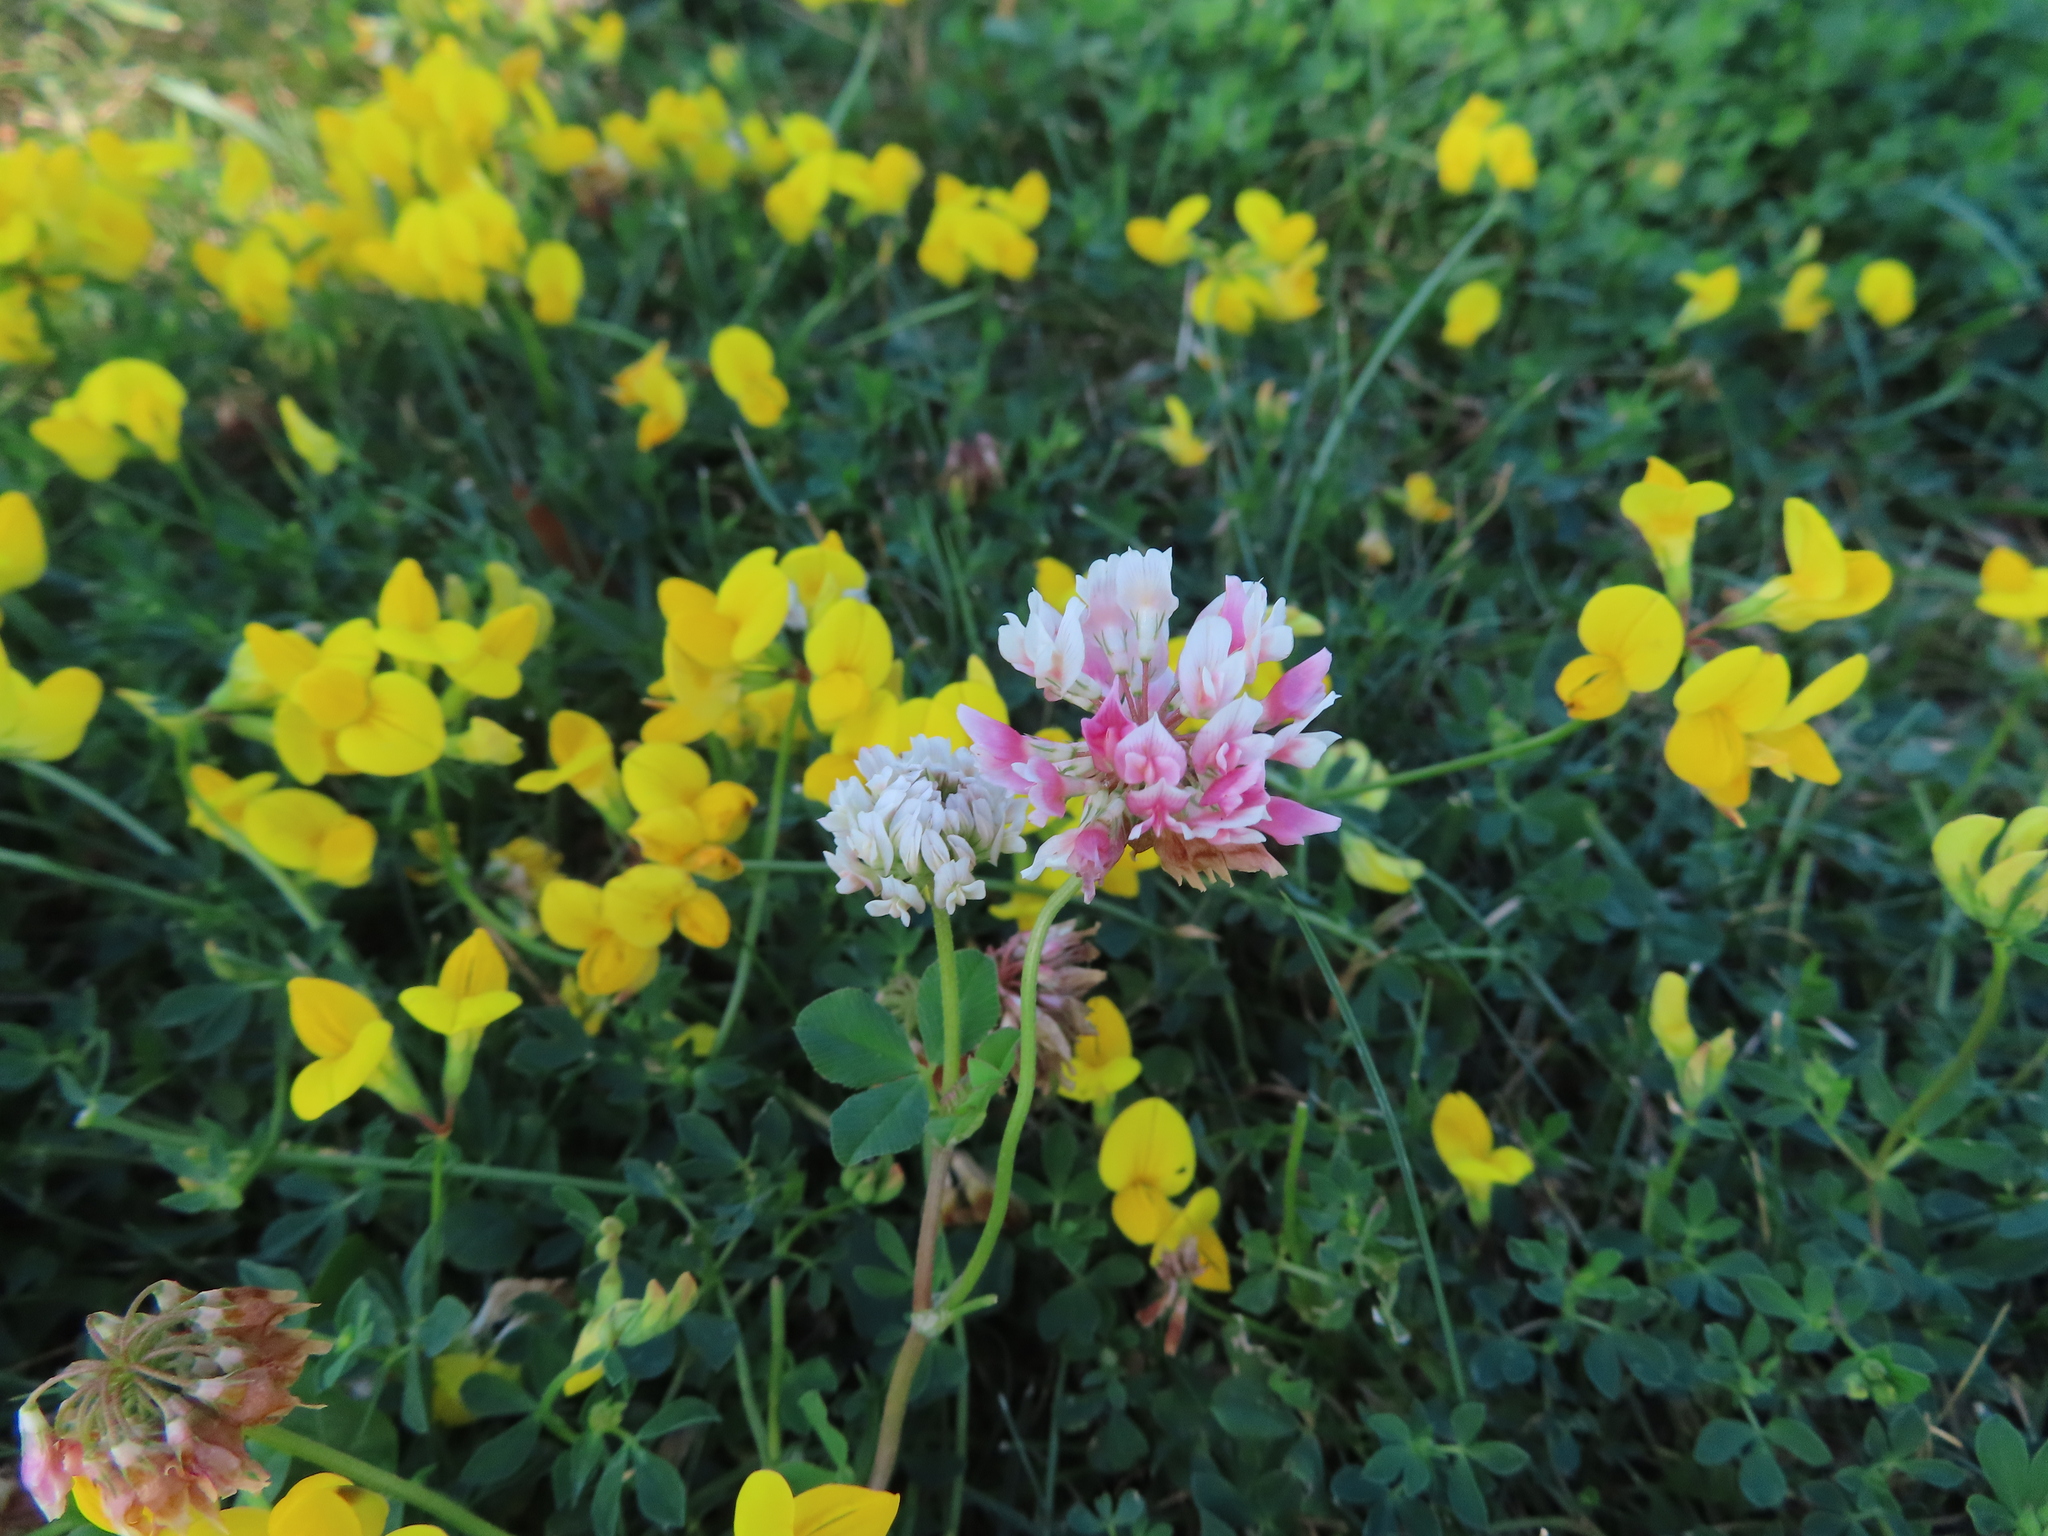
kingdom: Plantae
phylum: Tracheophyta
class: Magnoliopsida
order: Fabales
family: Fabaceae
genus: Trifolium
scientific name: Trifolium hybridum
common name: Alsike clover
